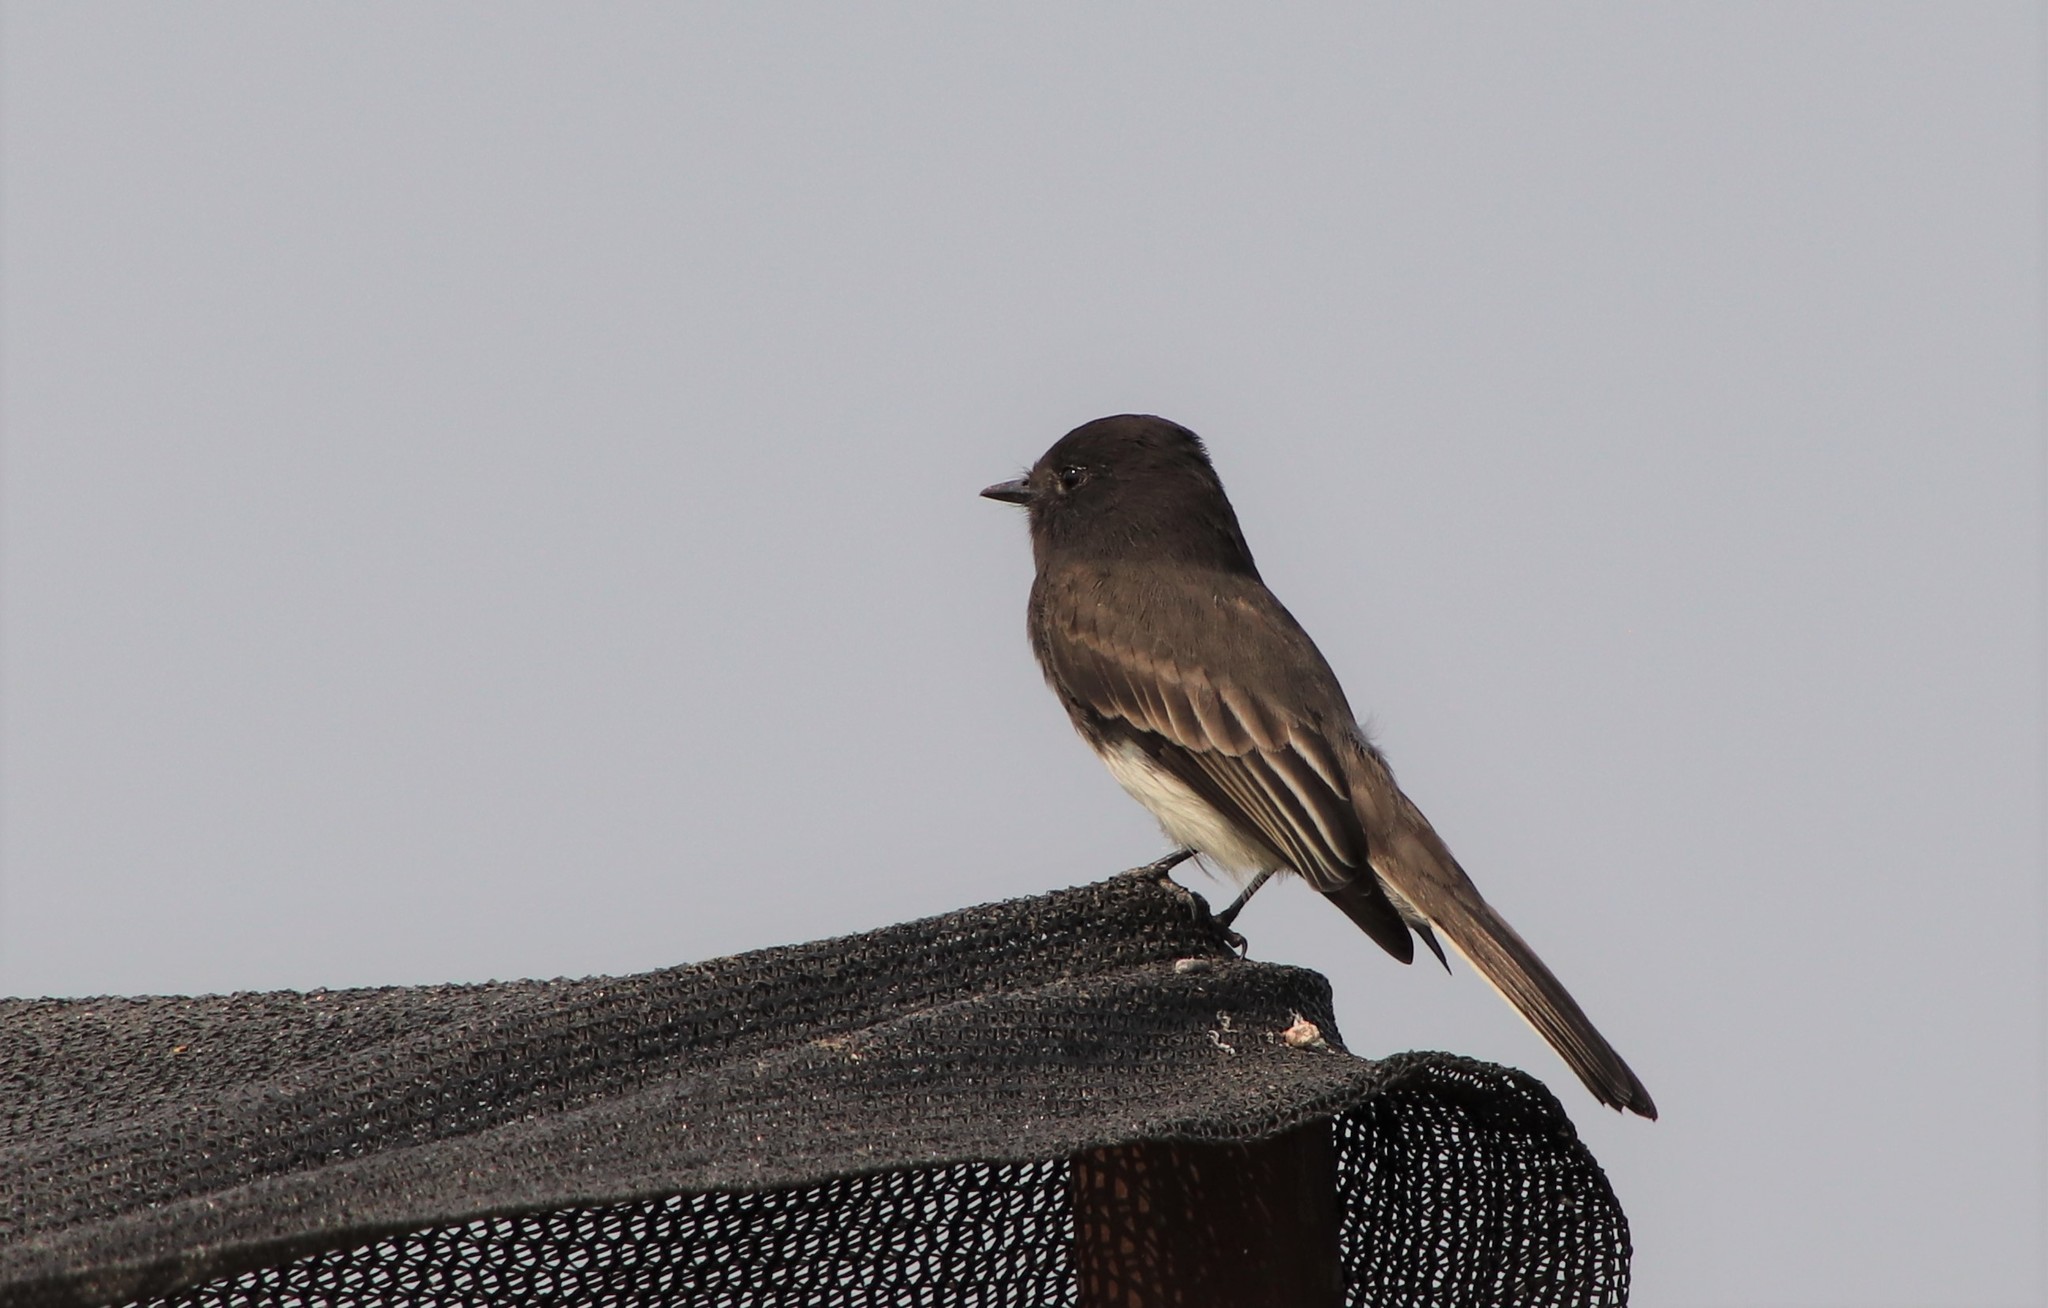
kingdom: Animalia
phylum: Chordata
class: Aves
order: Passeriformes
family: Tyrannidae
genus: Sayornis
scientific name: Sayornis nigricans
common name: Black phoebe
